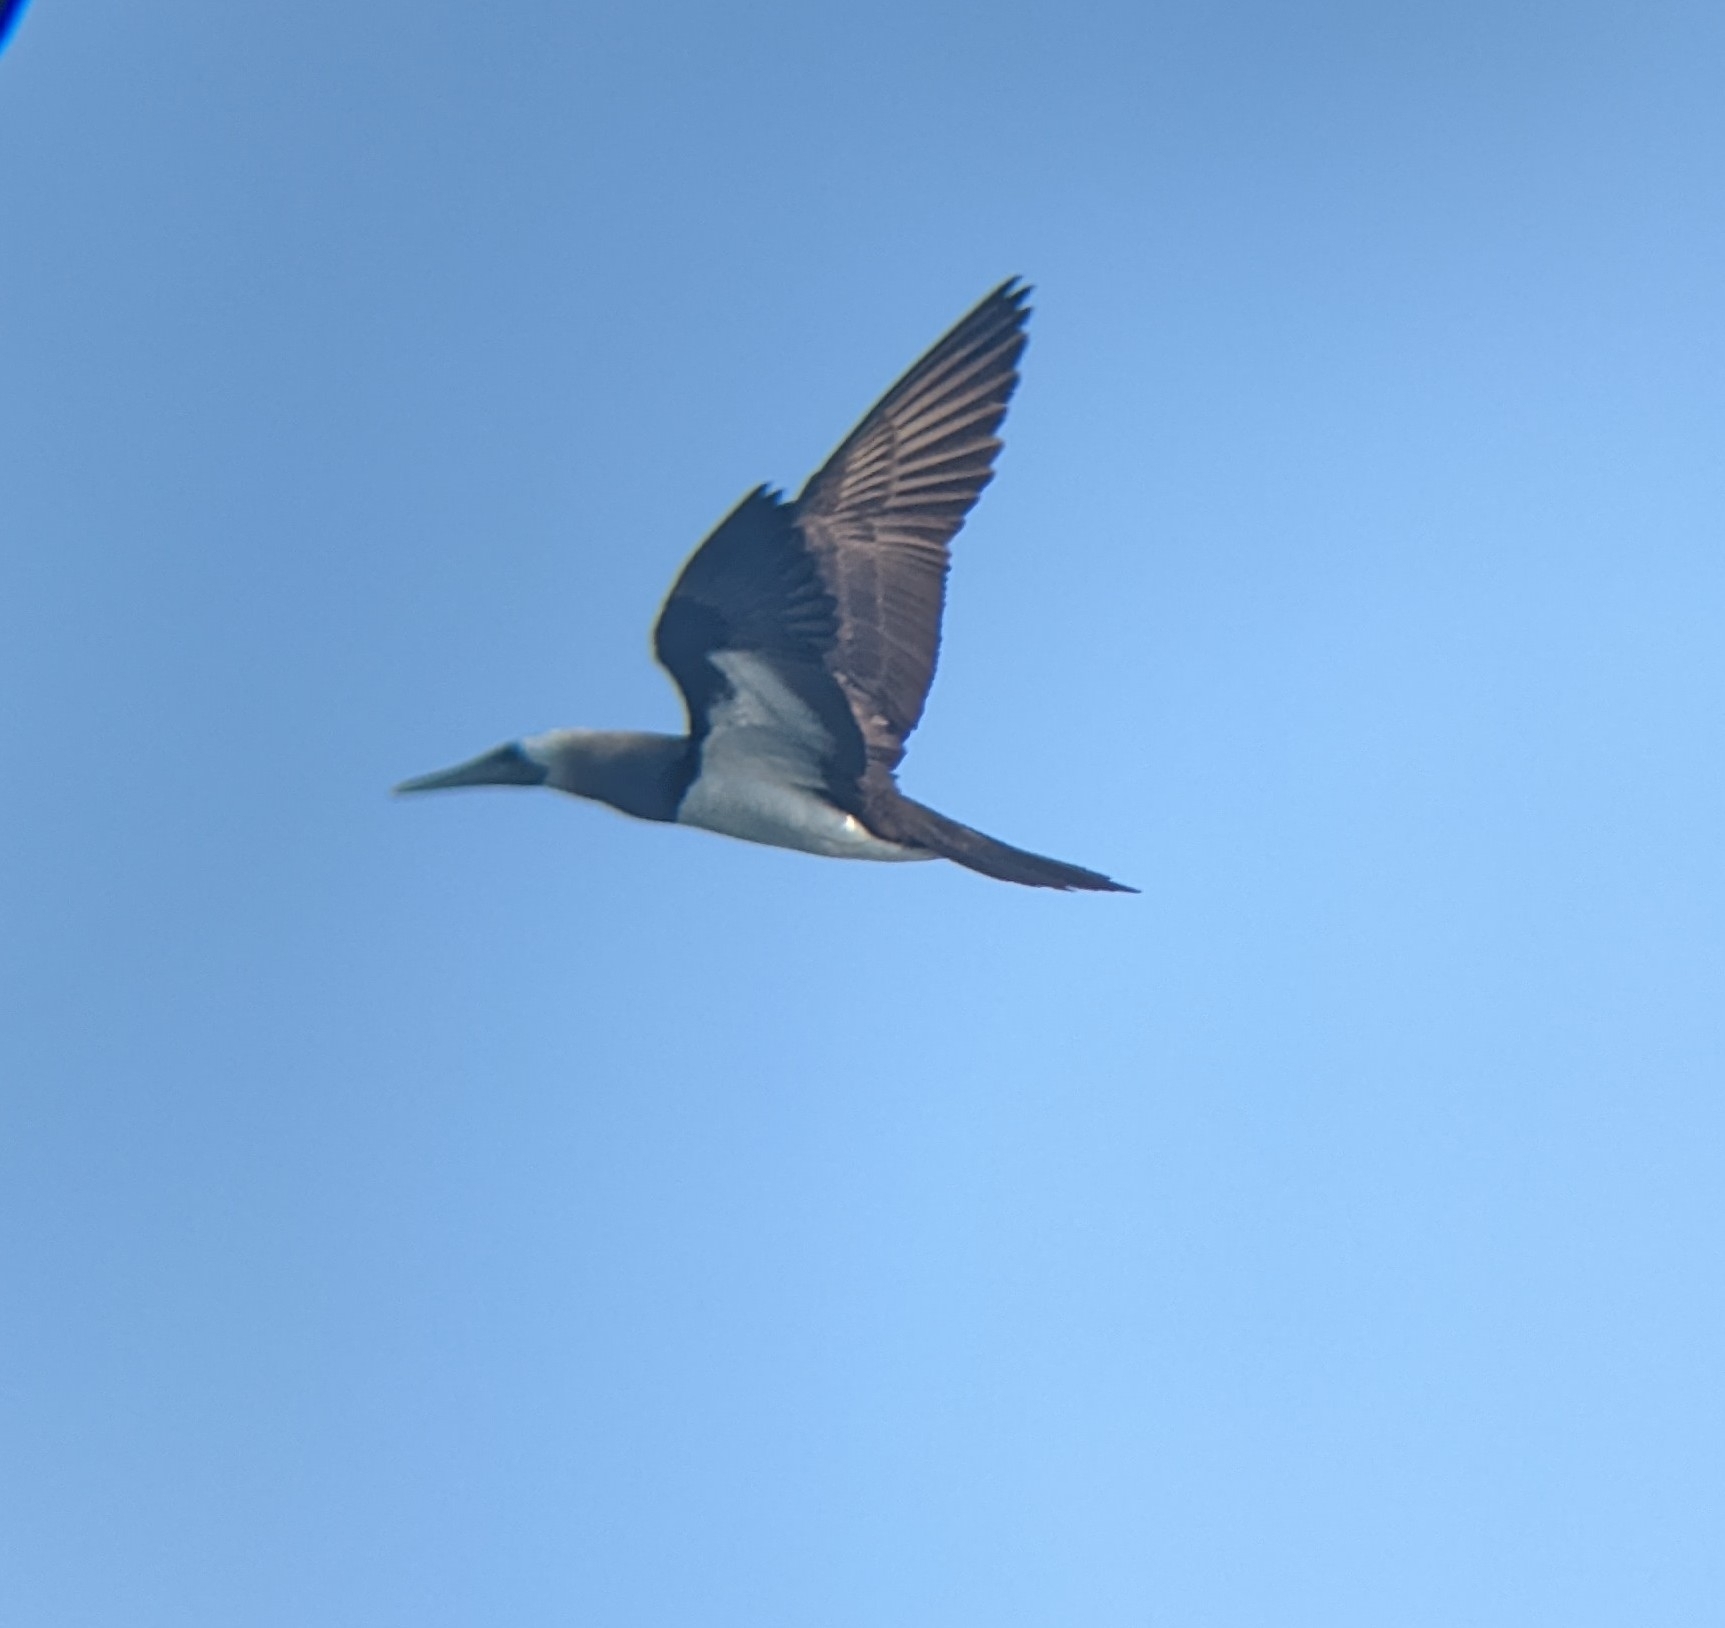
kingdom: Animalia
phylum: Chordata
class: Aves
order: Suliformes
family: Sulidae
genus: Sula
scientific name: Sula leucogaster
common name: Brown booby
